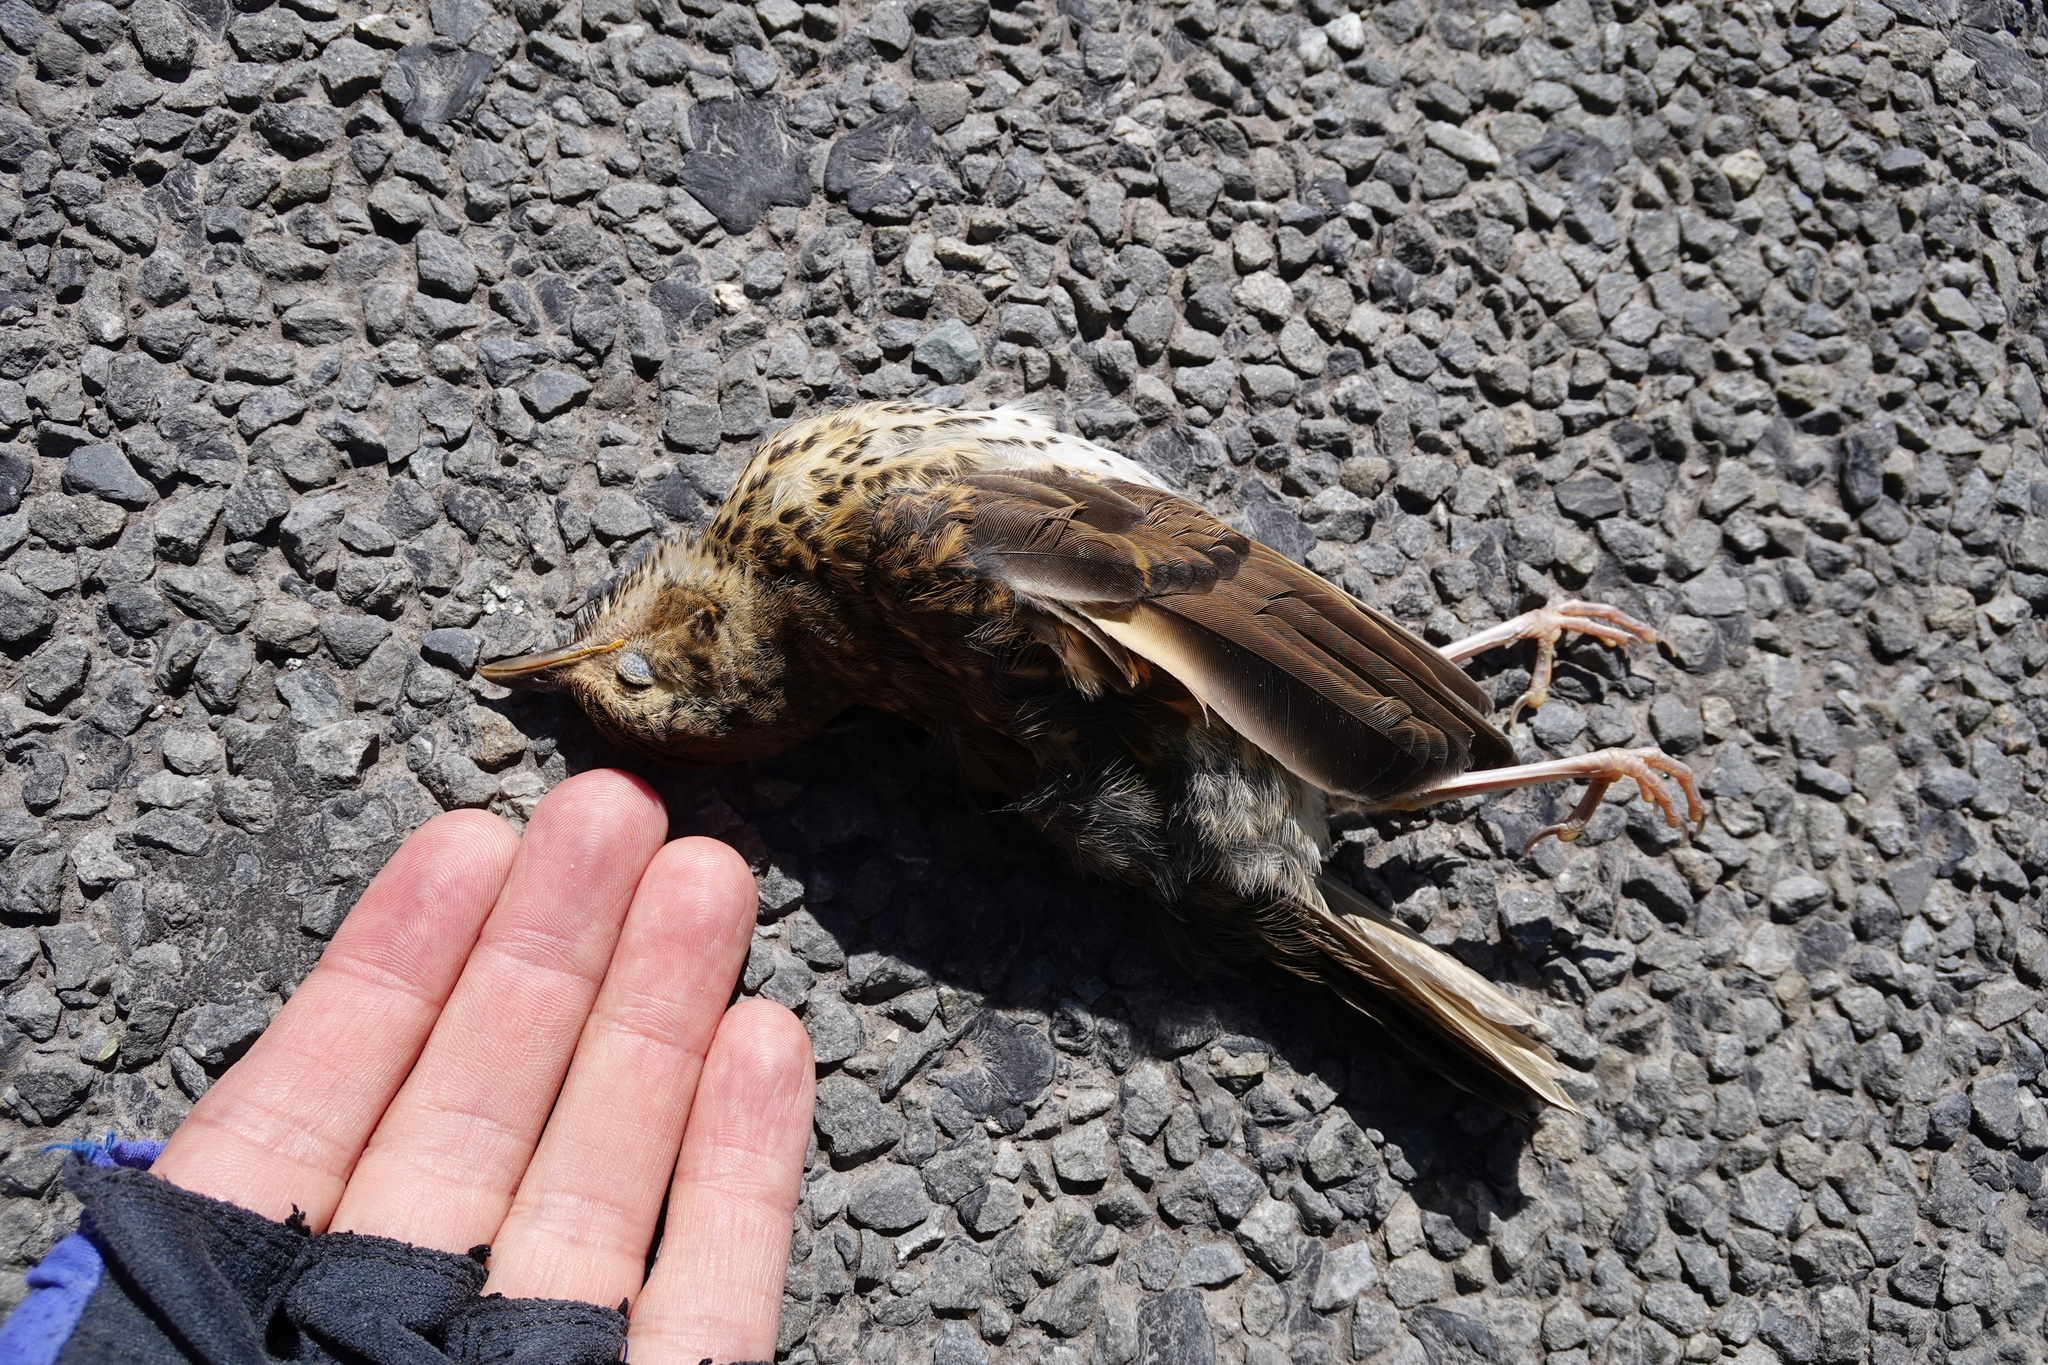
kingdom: Animalia
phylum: Chordata
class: Aves
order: Passeriformes
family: Turdidae
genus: Turdus
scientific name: Turdus philomelos
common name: Song thrush
